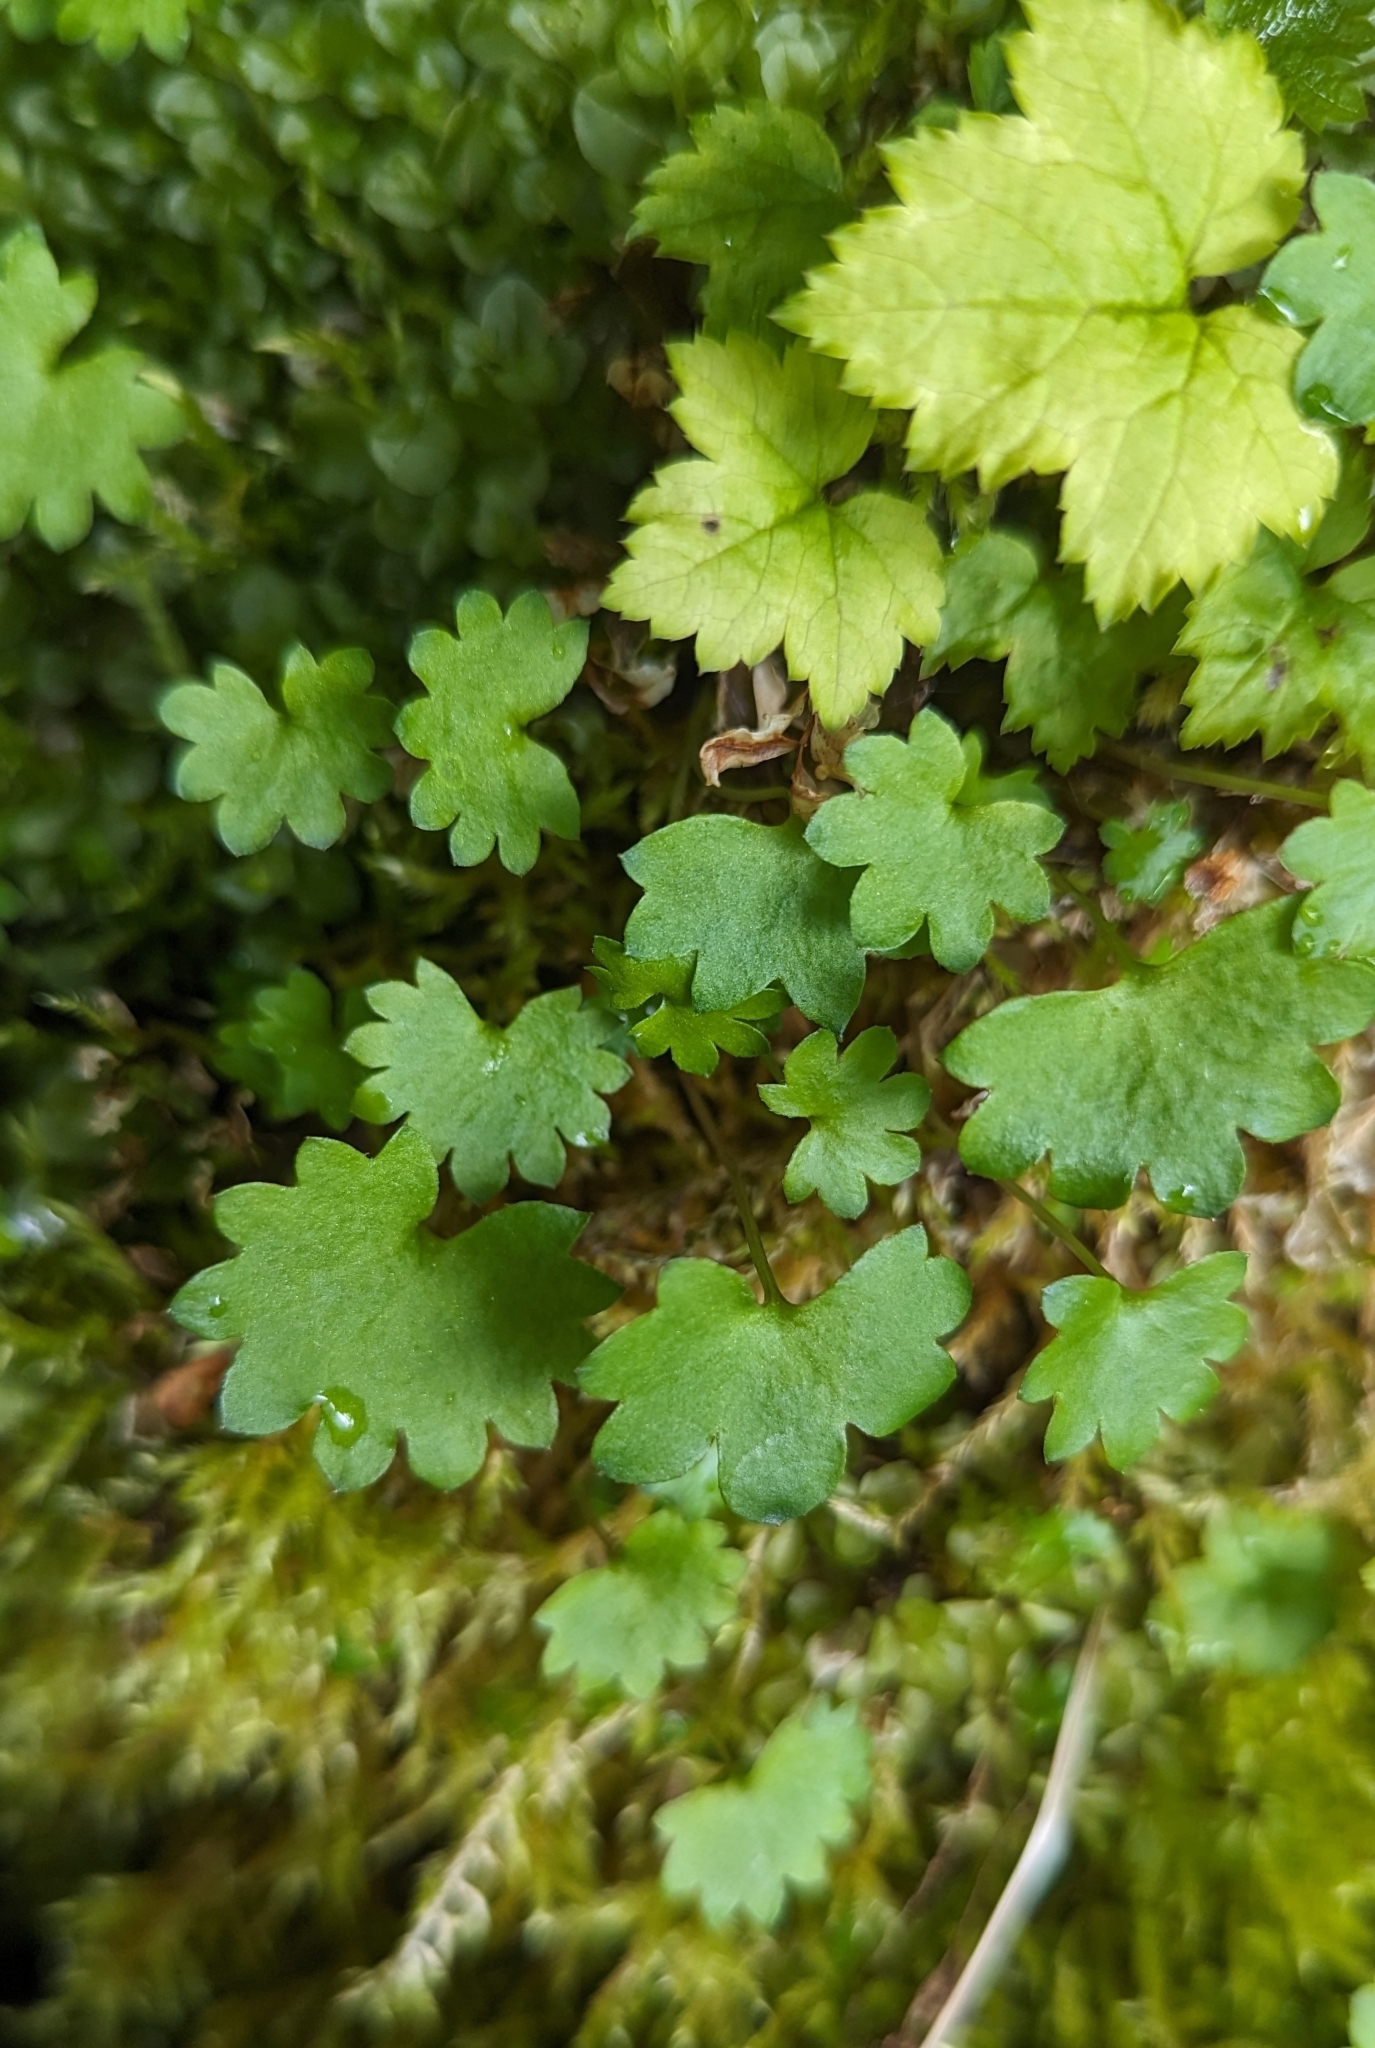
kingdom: Plantae
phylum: Tracheophyta
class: Magnoliopsida
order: Saxifragales
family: Saxifragaceae
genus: Micranthes
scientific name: Micranthes nelsoniana
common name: Nelson's saxifrage
